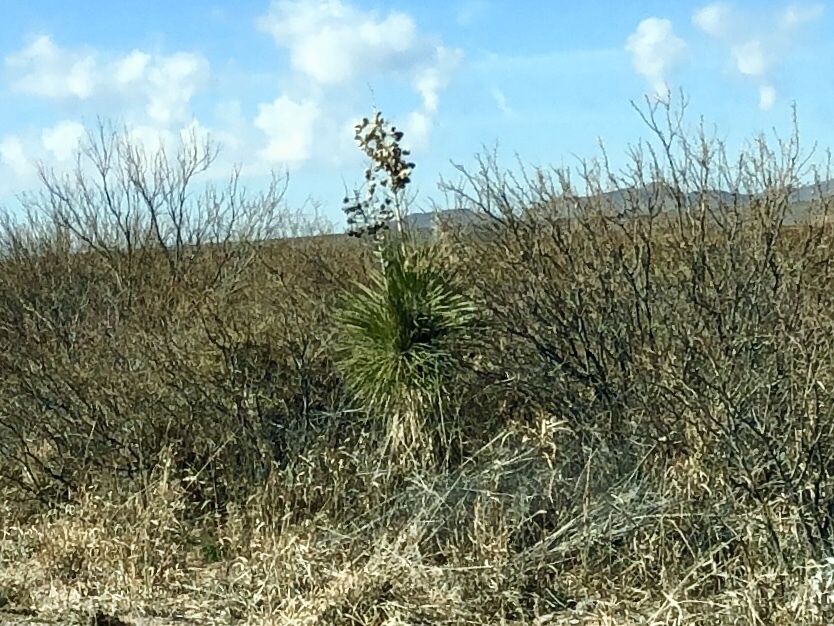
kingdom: Plantae
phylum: Tracheophyta
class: Liliopsida
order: Asparagales
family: Asparagaceae
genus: Yucca
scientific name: Yucca elata
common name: Palmella
